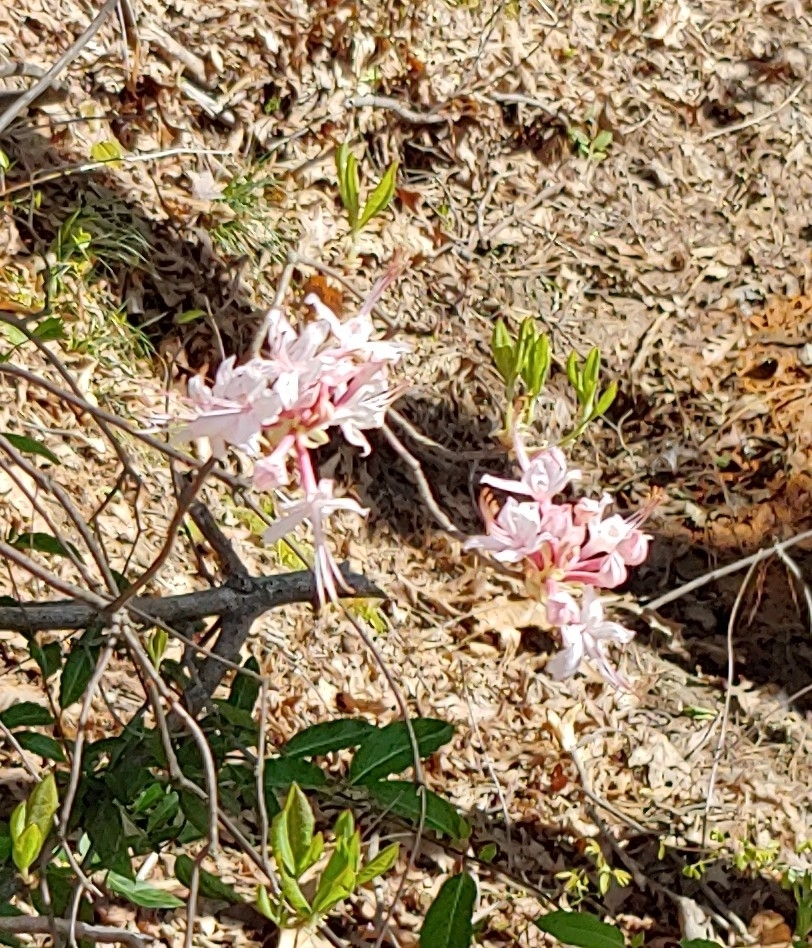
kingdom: Plantae
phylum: Tracheophyta
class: Magnoliopsida
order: Ericales
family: Ericaceae
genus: Rhododendron
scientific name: Rhododendron canescens
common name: Mountain azalea
